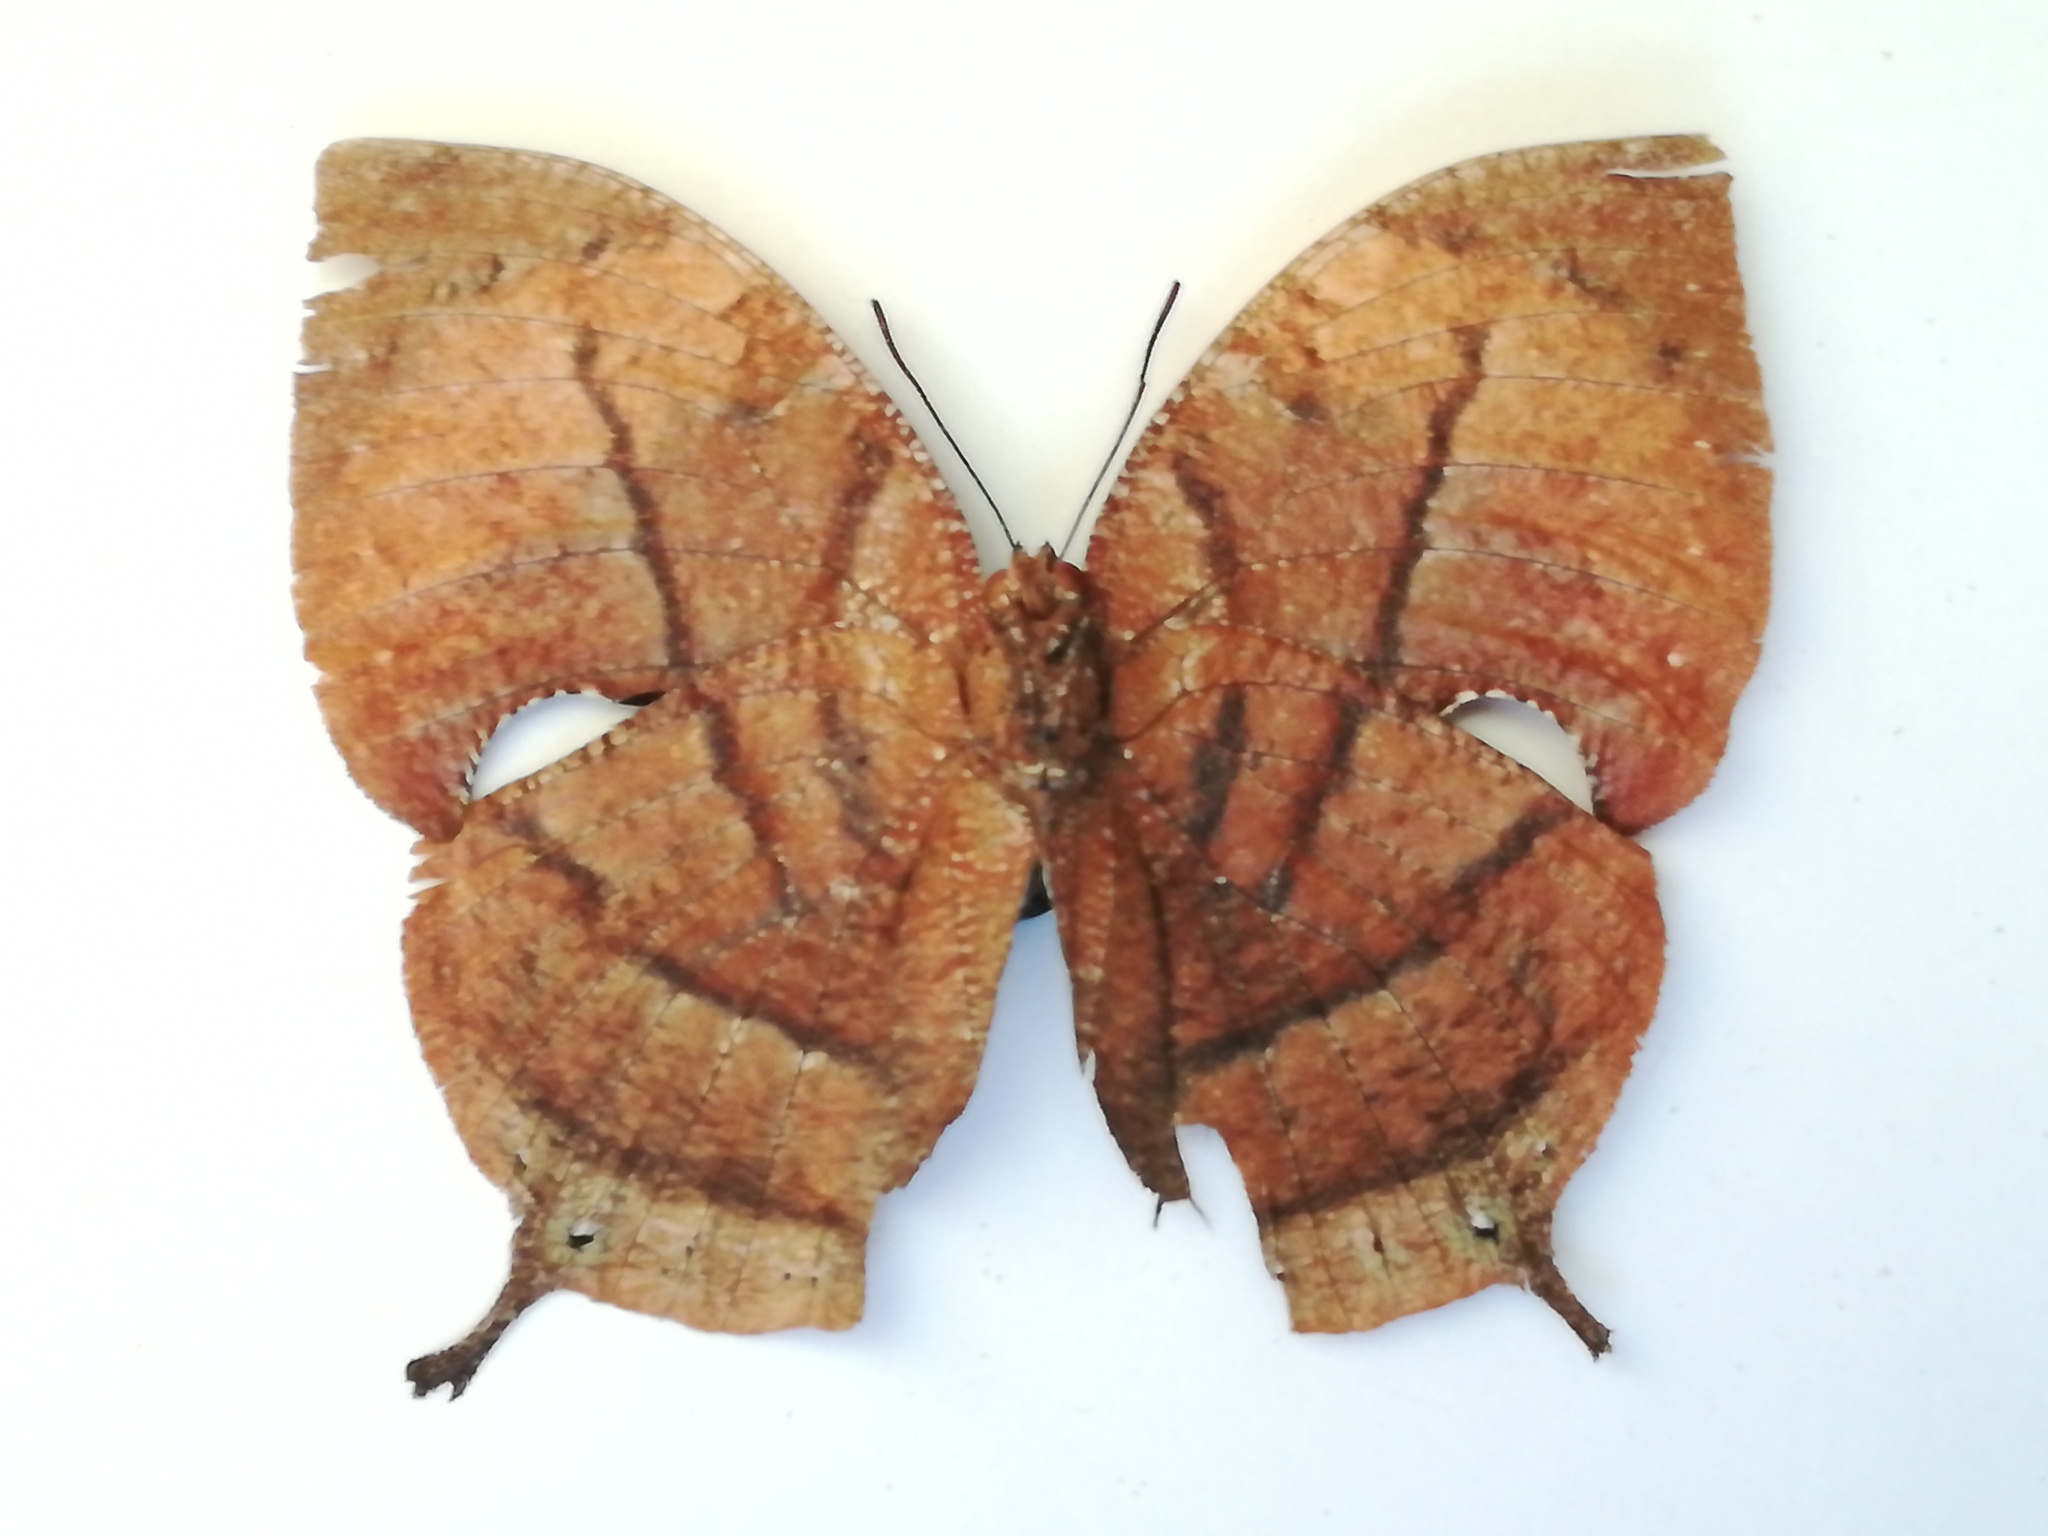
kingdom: Animalia
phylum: Arthropoda
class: Insecta
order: Lepidoptera
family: Nymphalidae
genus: Anaea
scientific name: Anaea philumena
